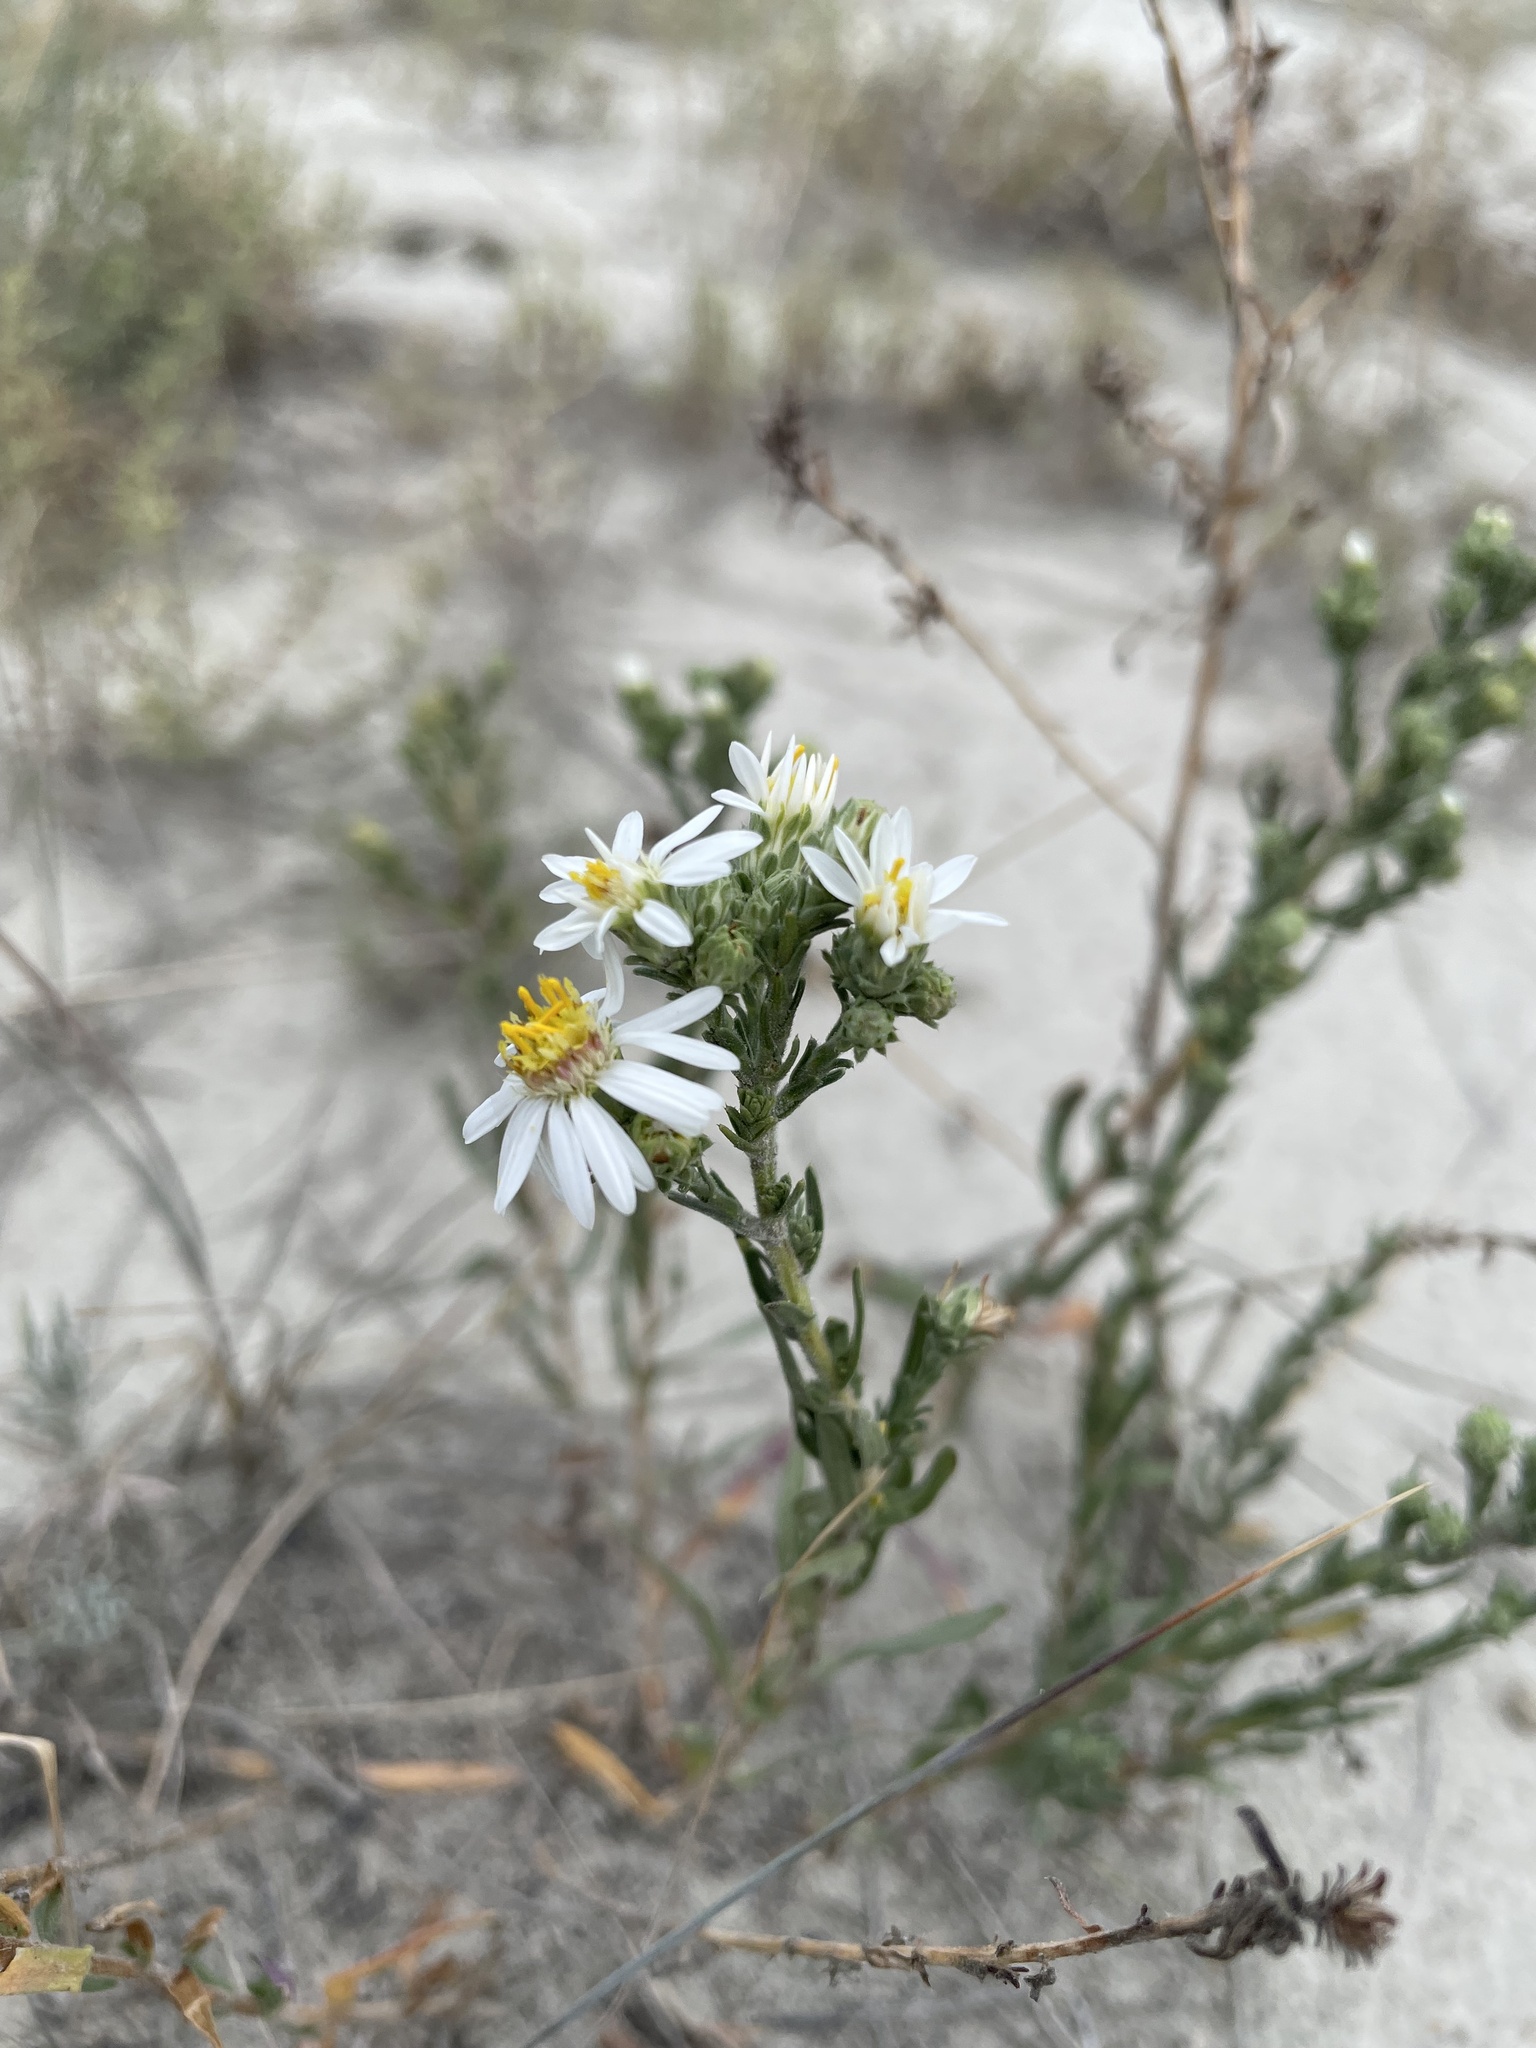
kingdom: Plantae
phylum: Tracheophyta
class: Magnoliopsida
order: Asterales
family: Asteraceae
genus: Symphyotrichum
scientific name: Symphyotrichum ericoides
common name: Heath aster
